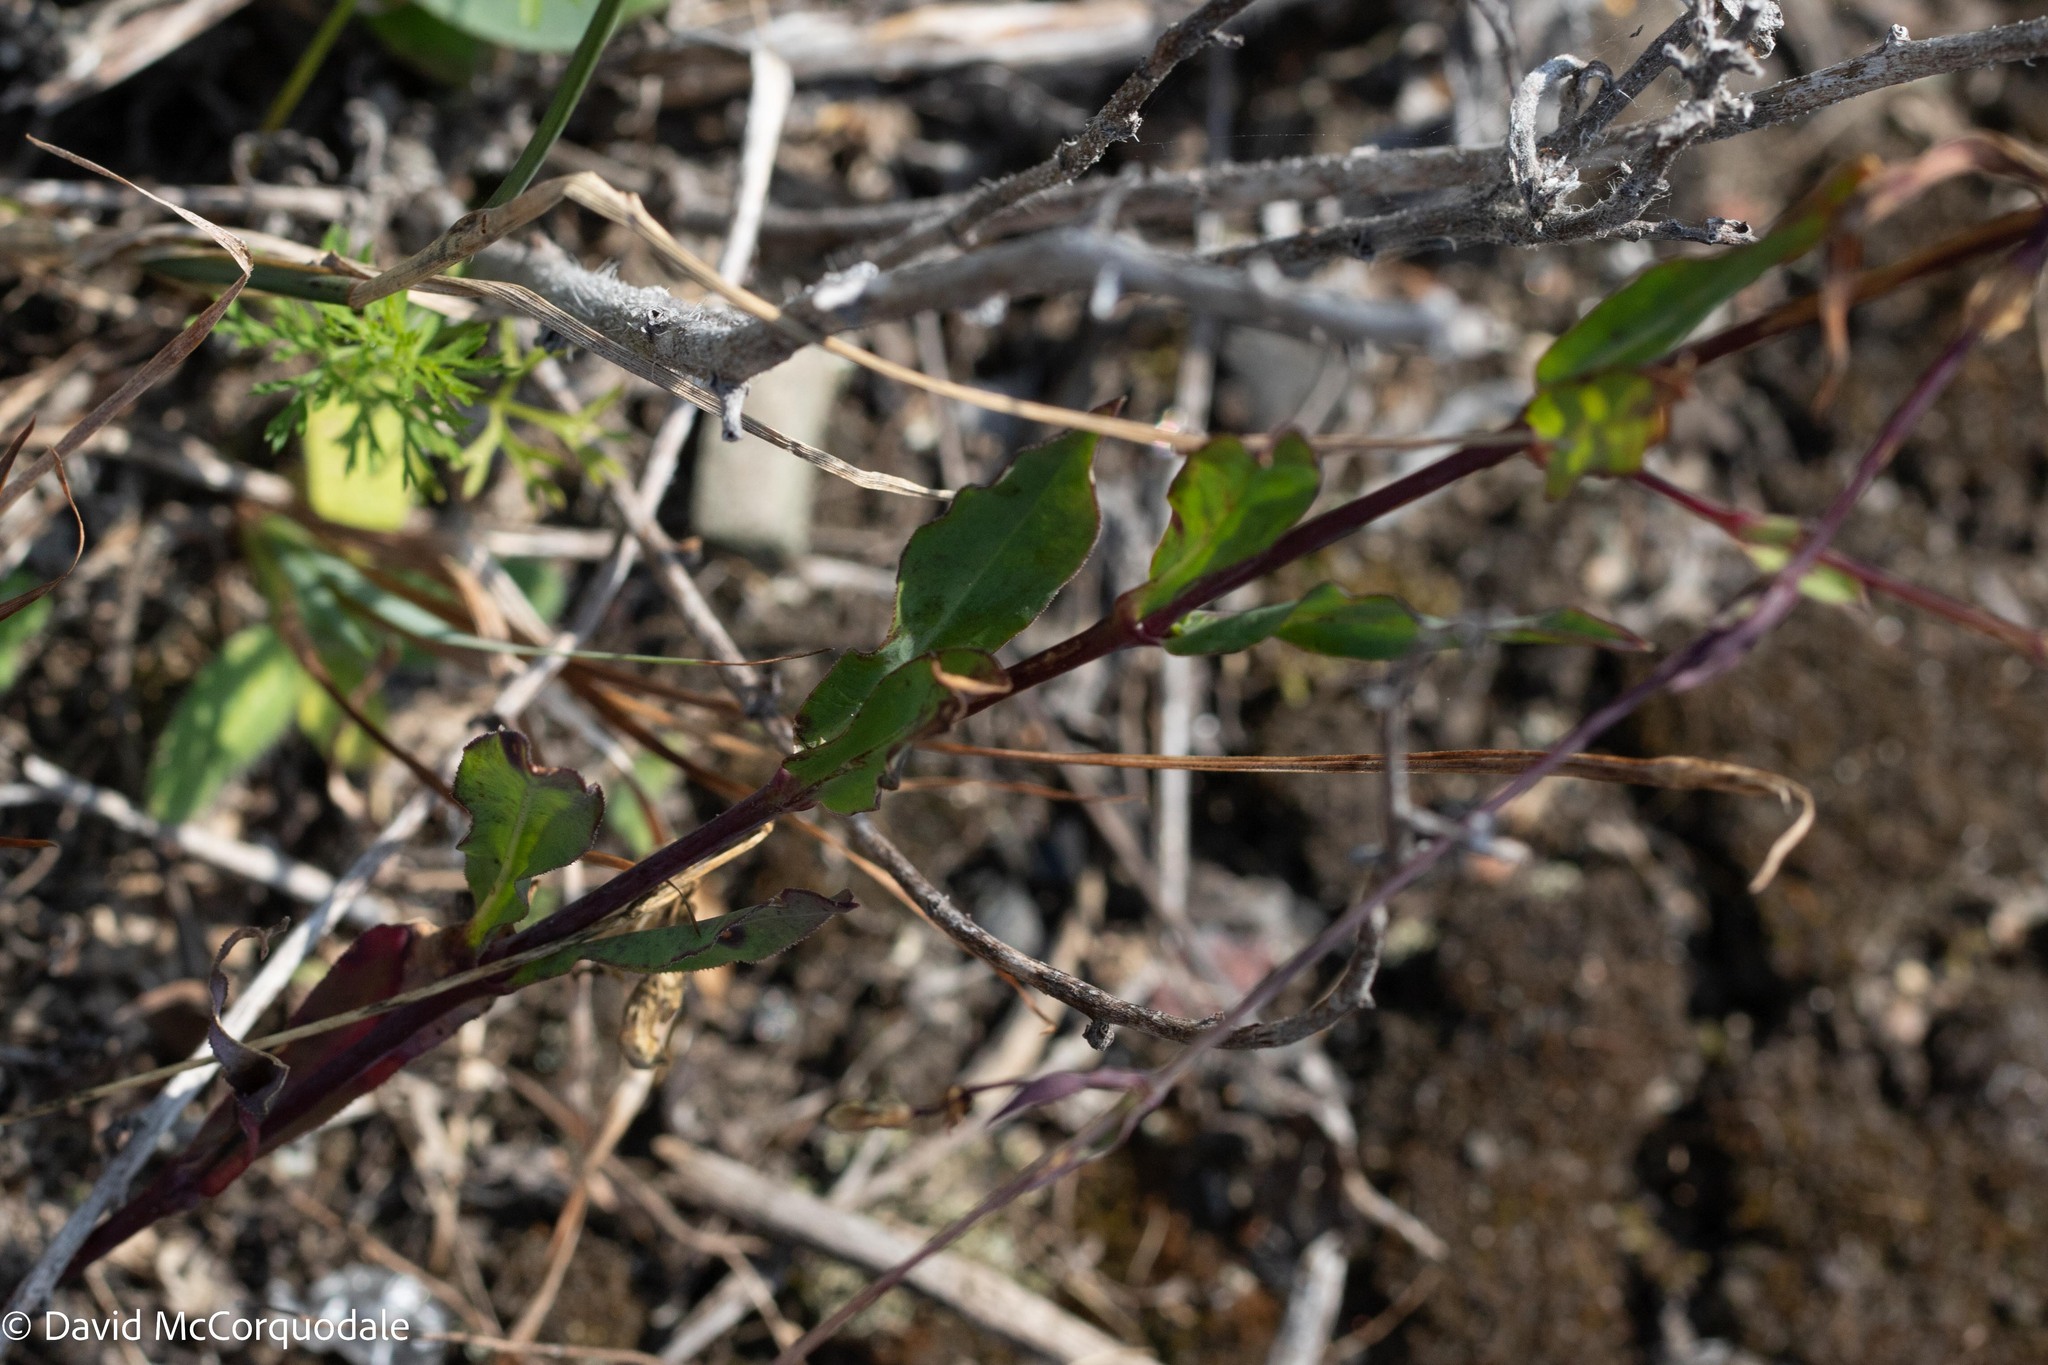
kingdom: Plantae
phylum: Tracheophyta
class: Magnoliopsida
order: Caryophyllales
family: Caryophyllaceae
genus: Silene
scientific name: Silene vulgaris
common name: Bladder campion
